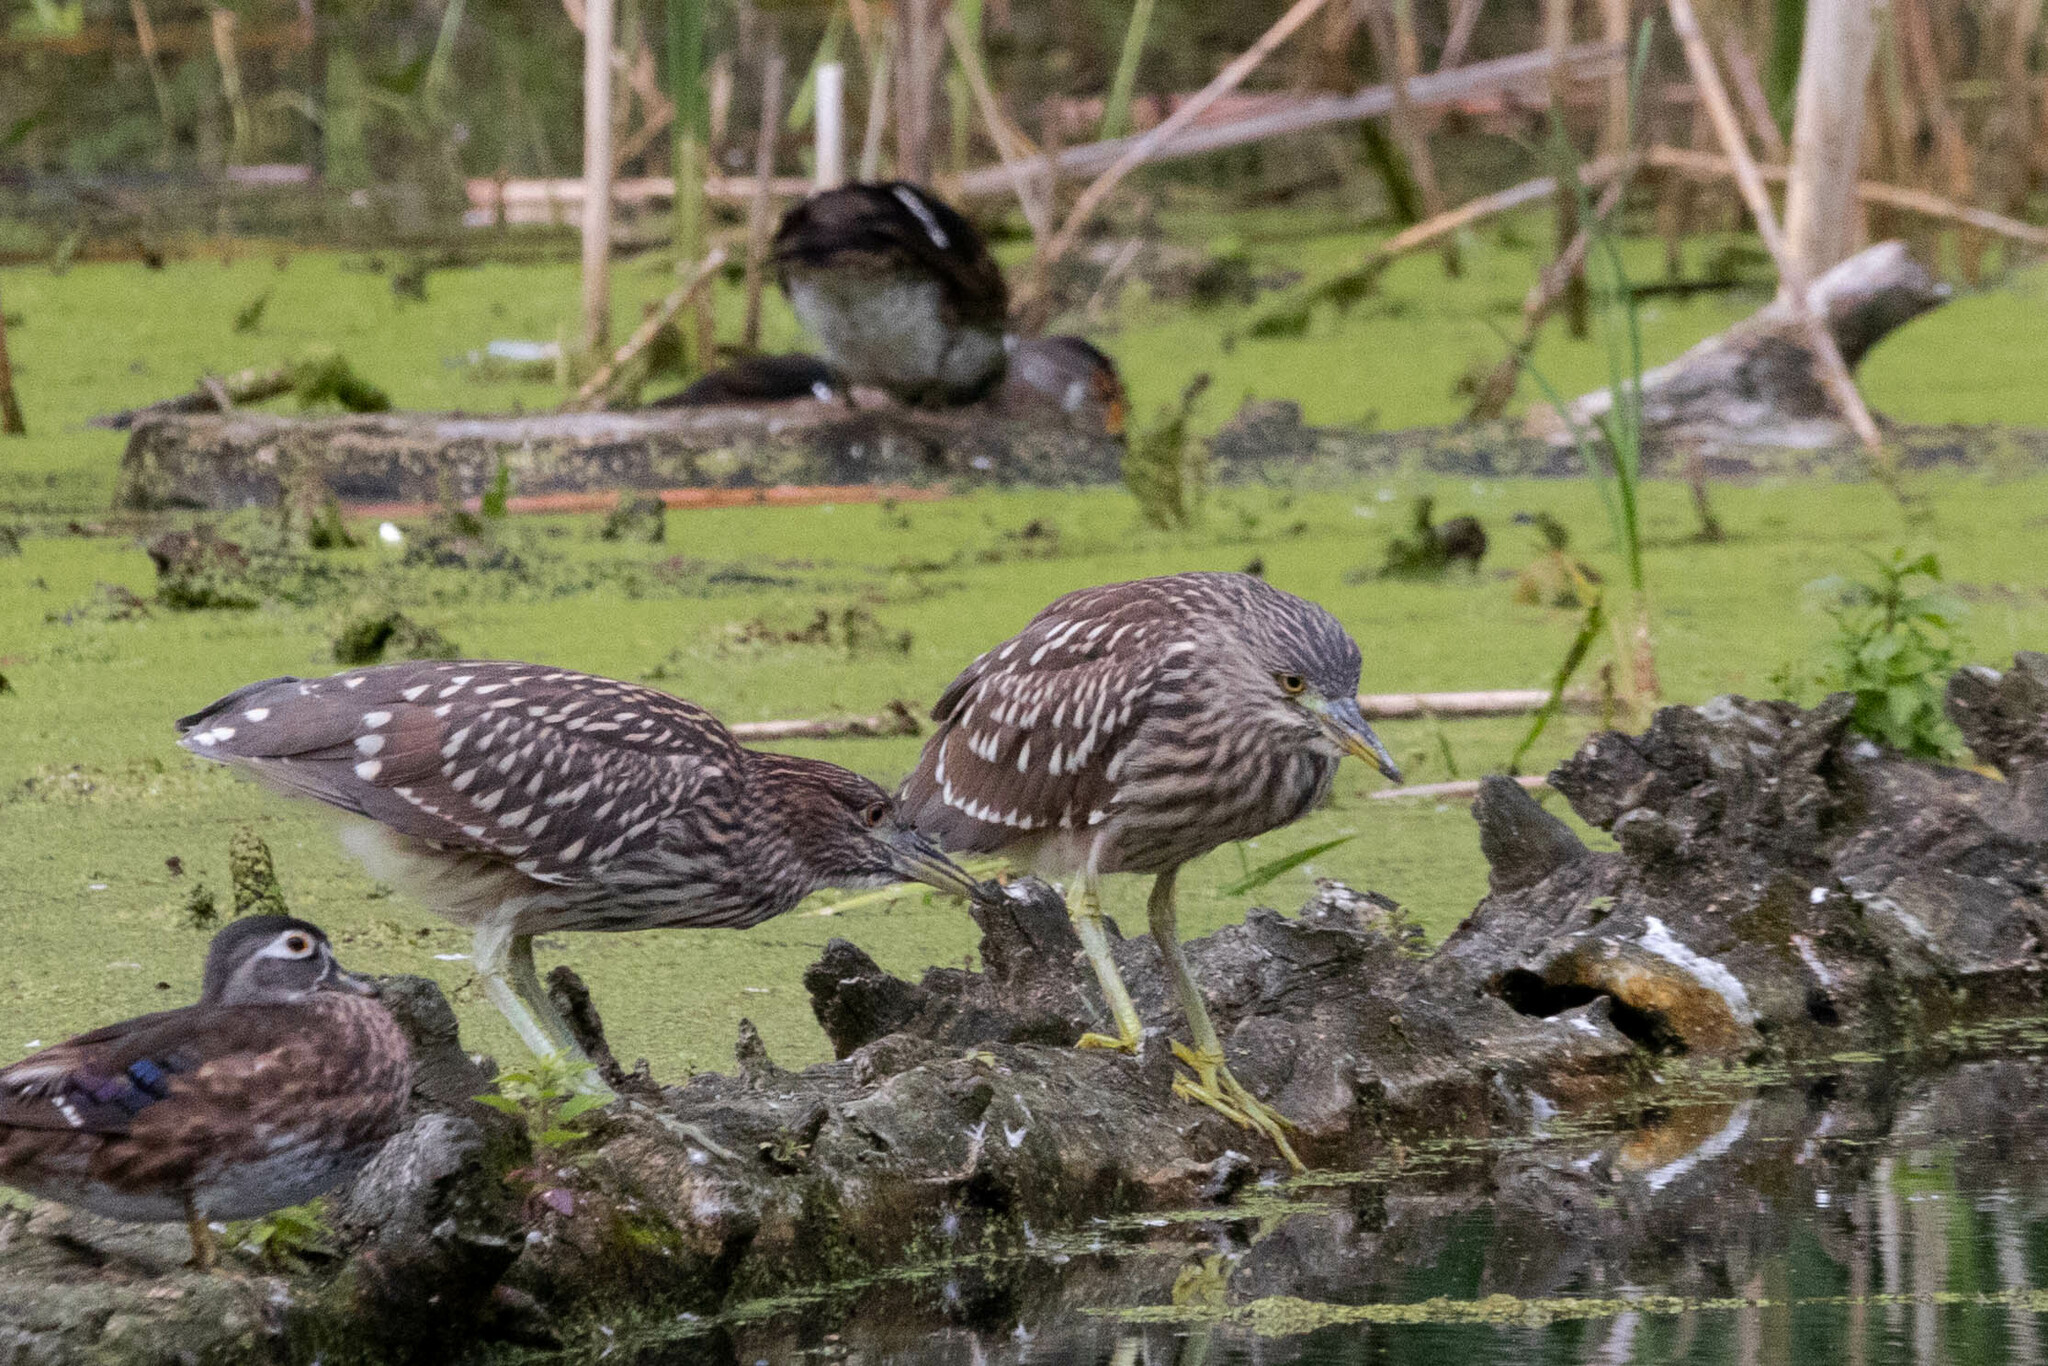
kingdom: Animalia
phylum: Chordata
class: Aves
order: Pelecaniformes
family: Ardeidae
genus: Nycticorax
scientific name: Nycticorax nycticorax
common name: Black-crowned night heron
